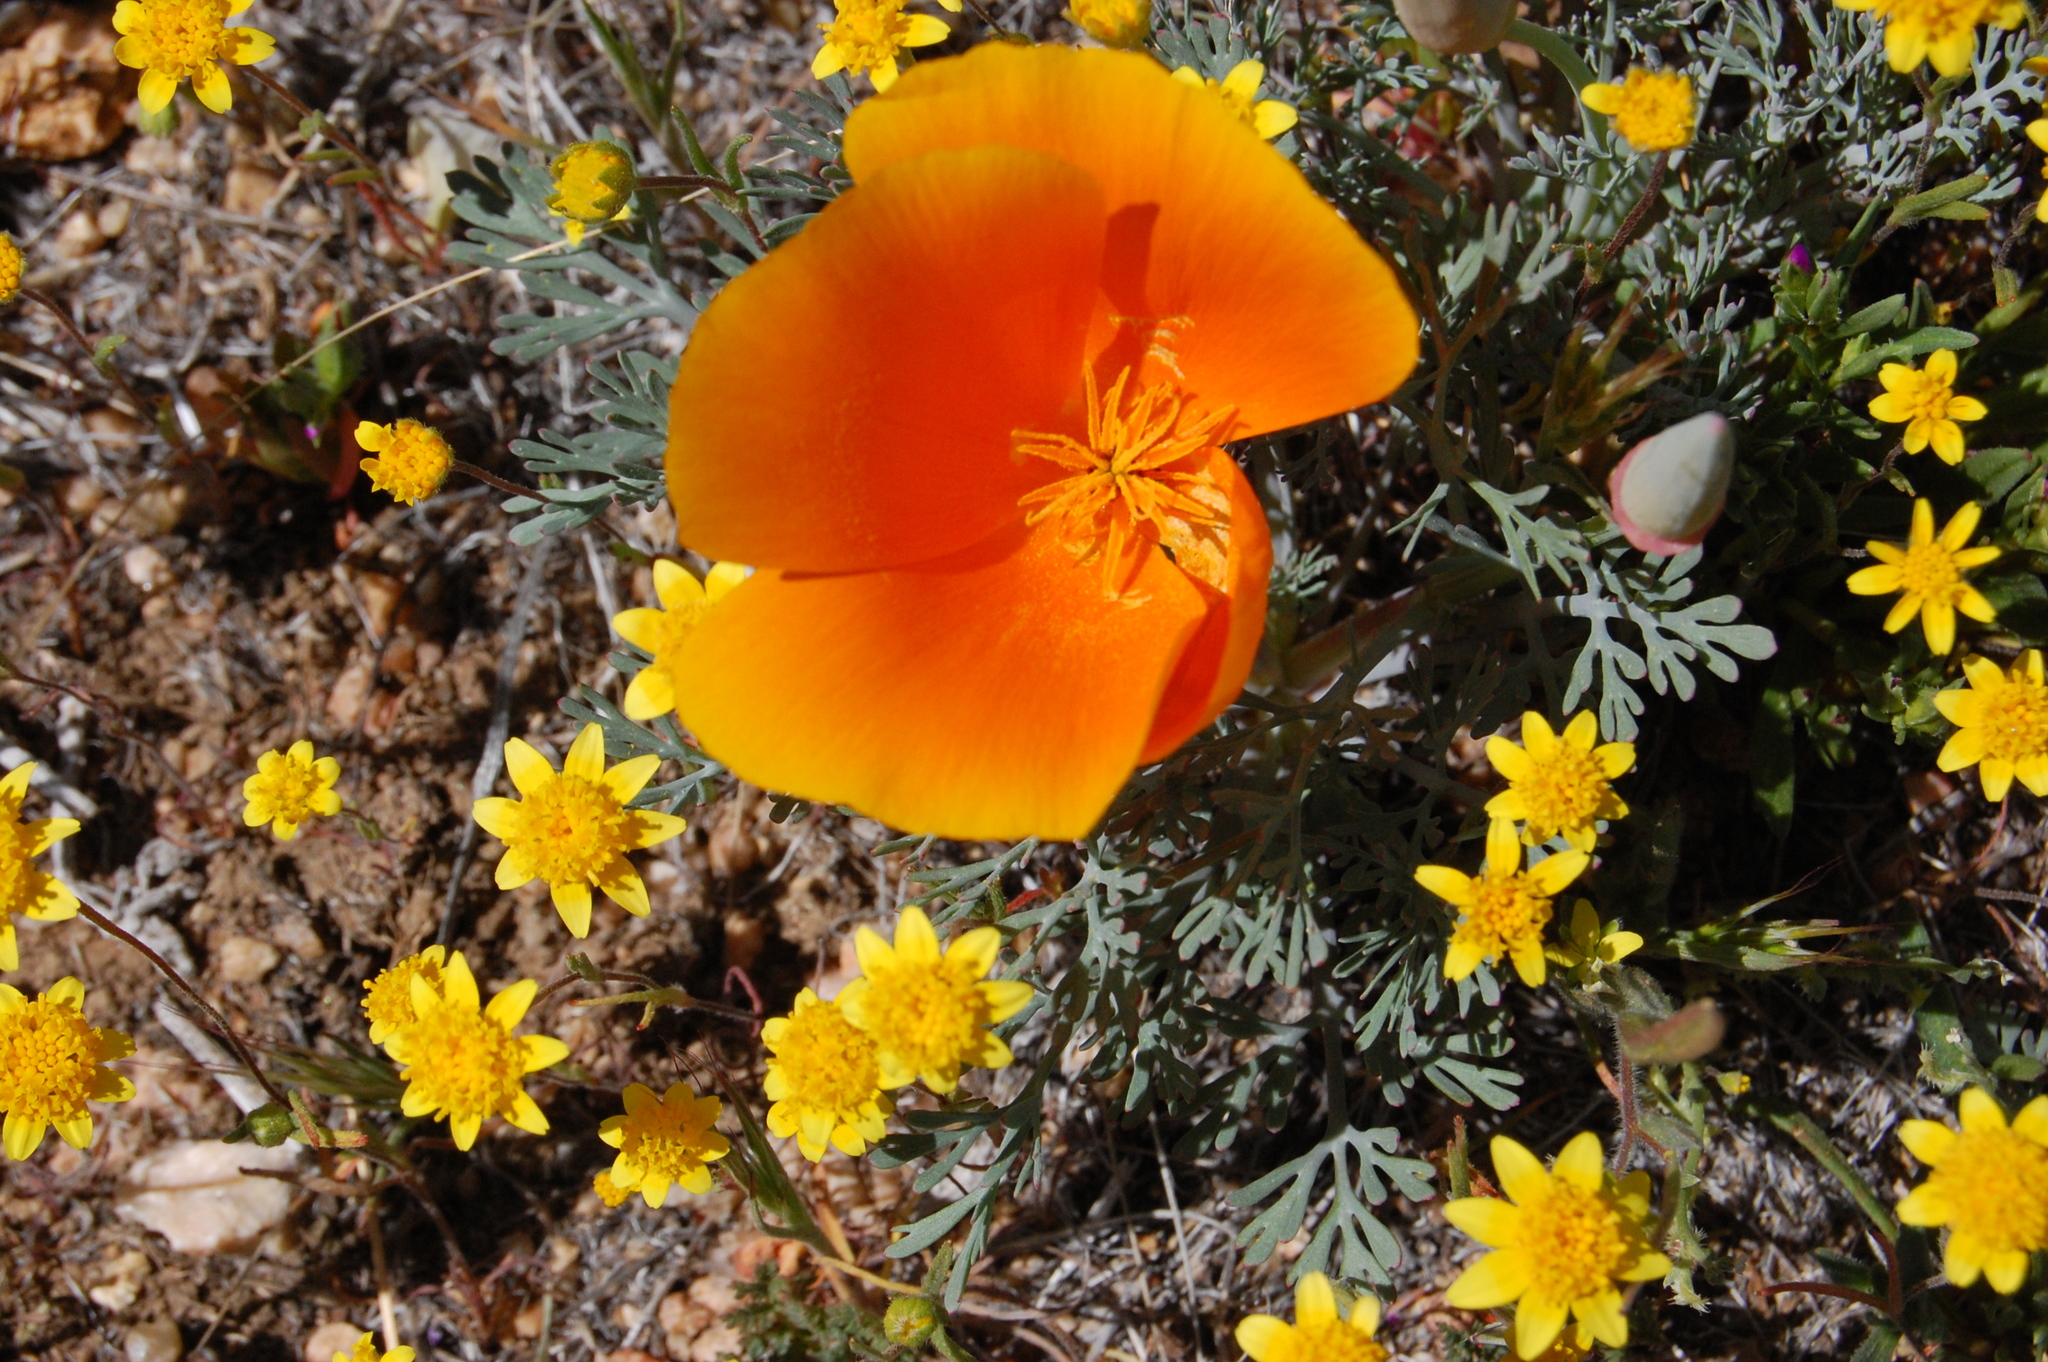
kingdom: Plantae
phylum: Tracheophyta
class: Magnoliopsida
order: Ranunculales
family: Papaveraceae
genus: Eschscholzia
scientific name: Eschscholzia californica
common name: California poppy
